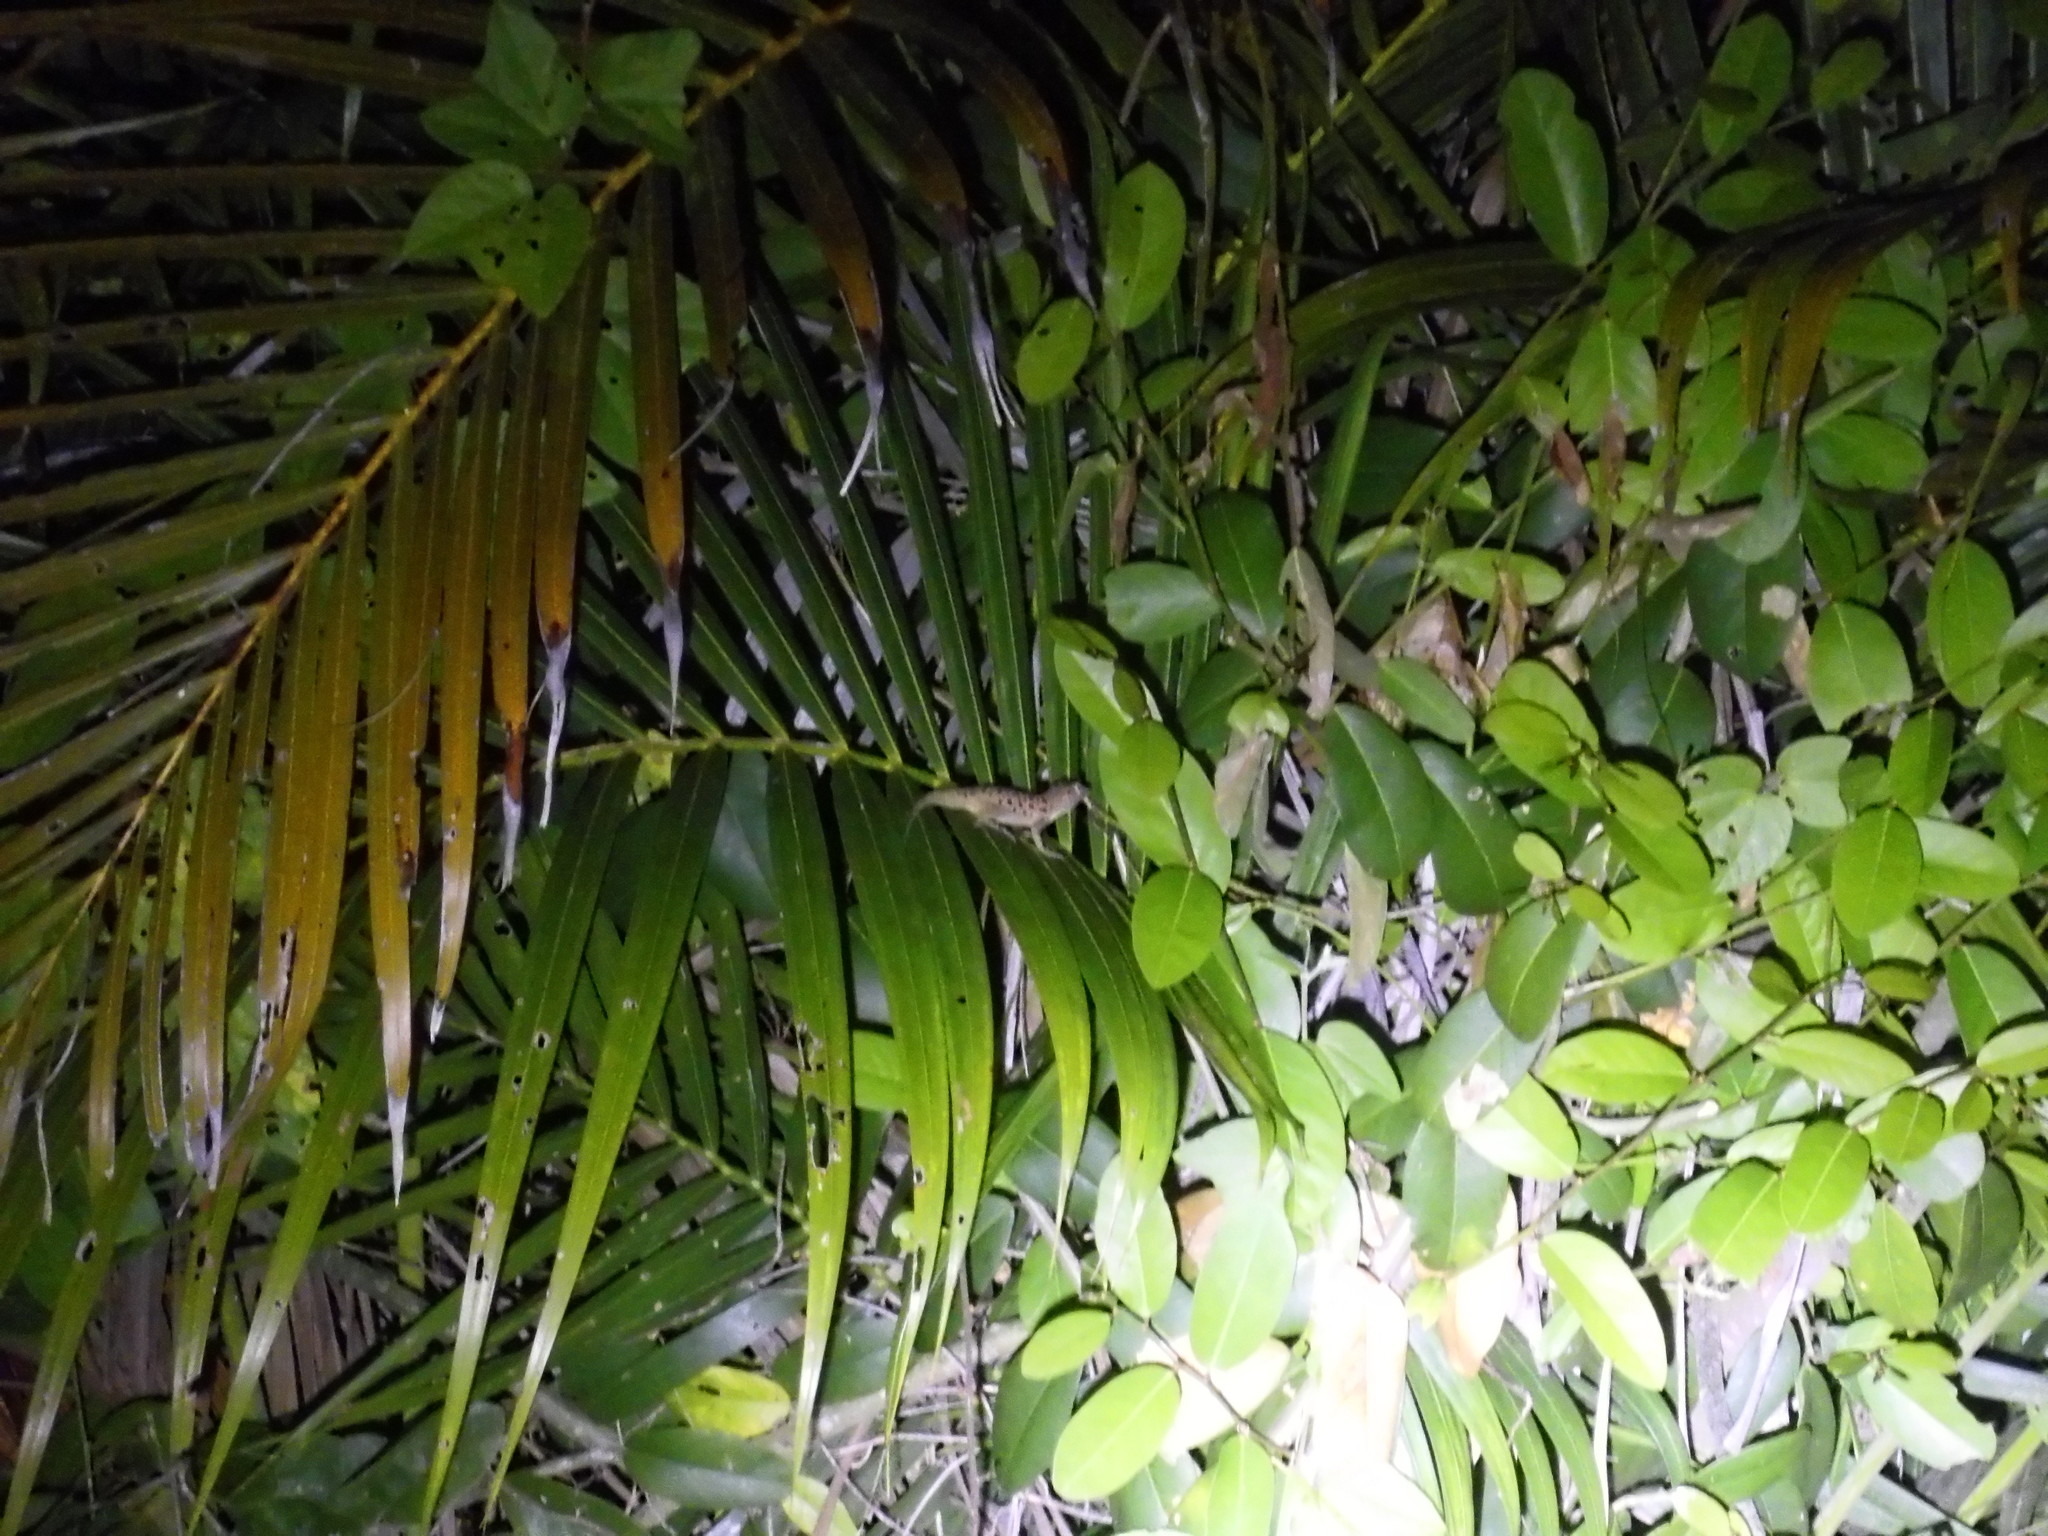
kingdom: Animalia
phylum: Chordata
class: Squamata
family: Dactyloidae
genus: Anolis
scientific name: Anolis sabanus
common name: Saba anole
